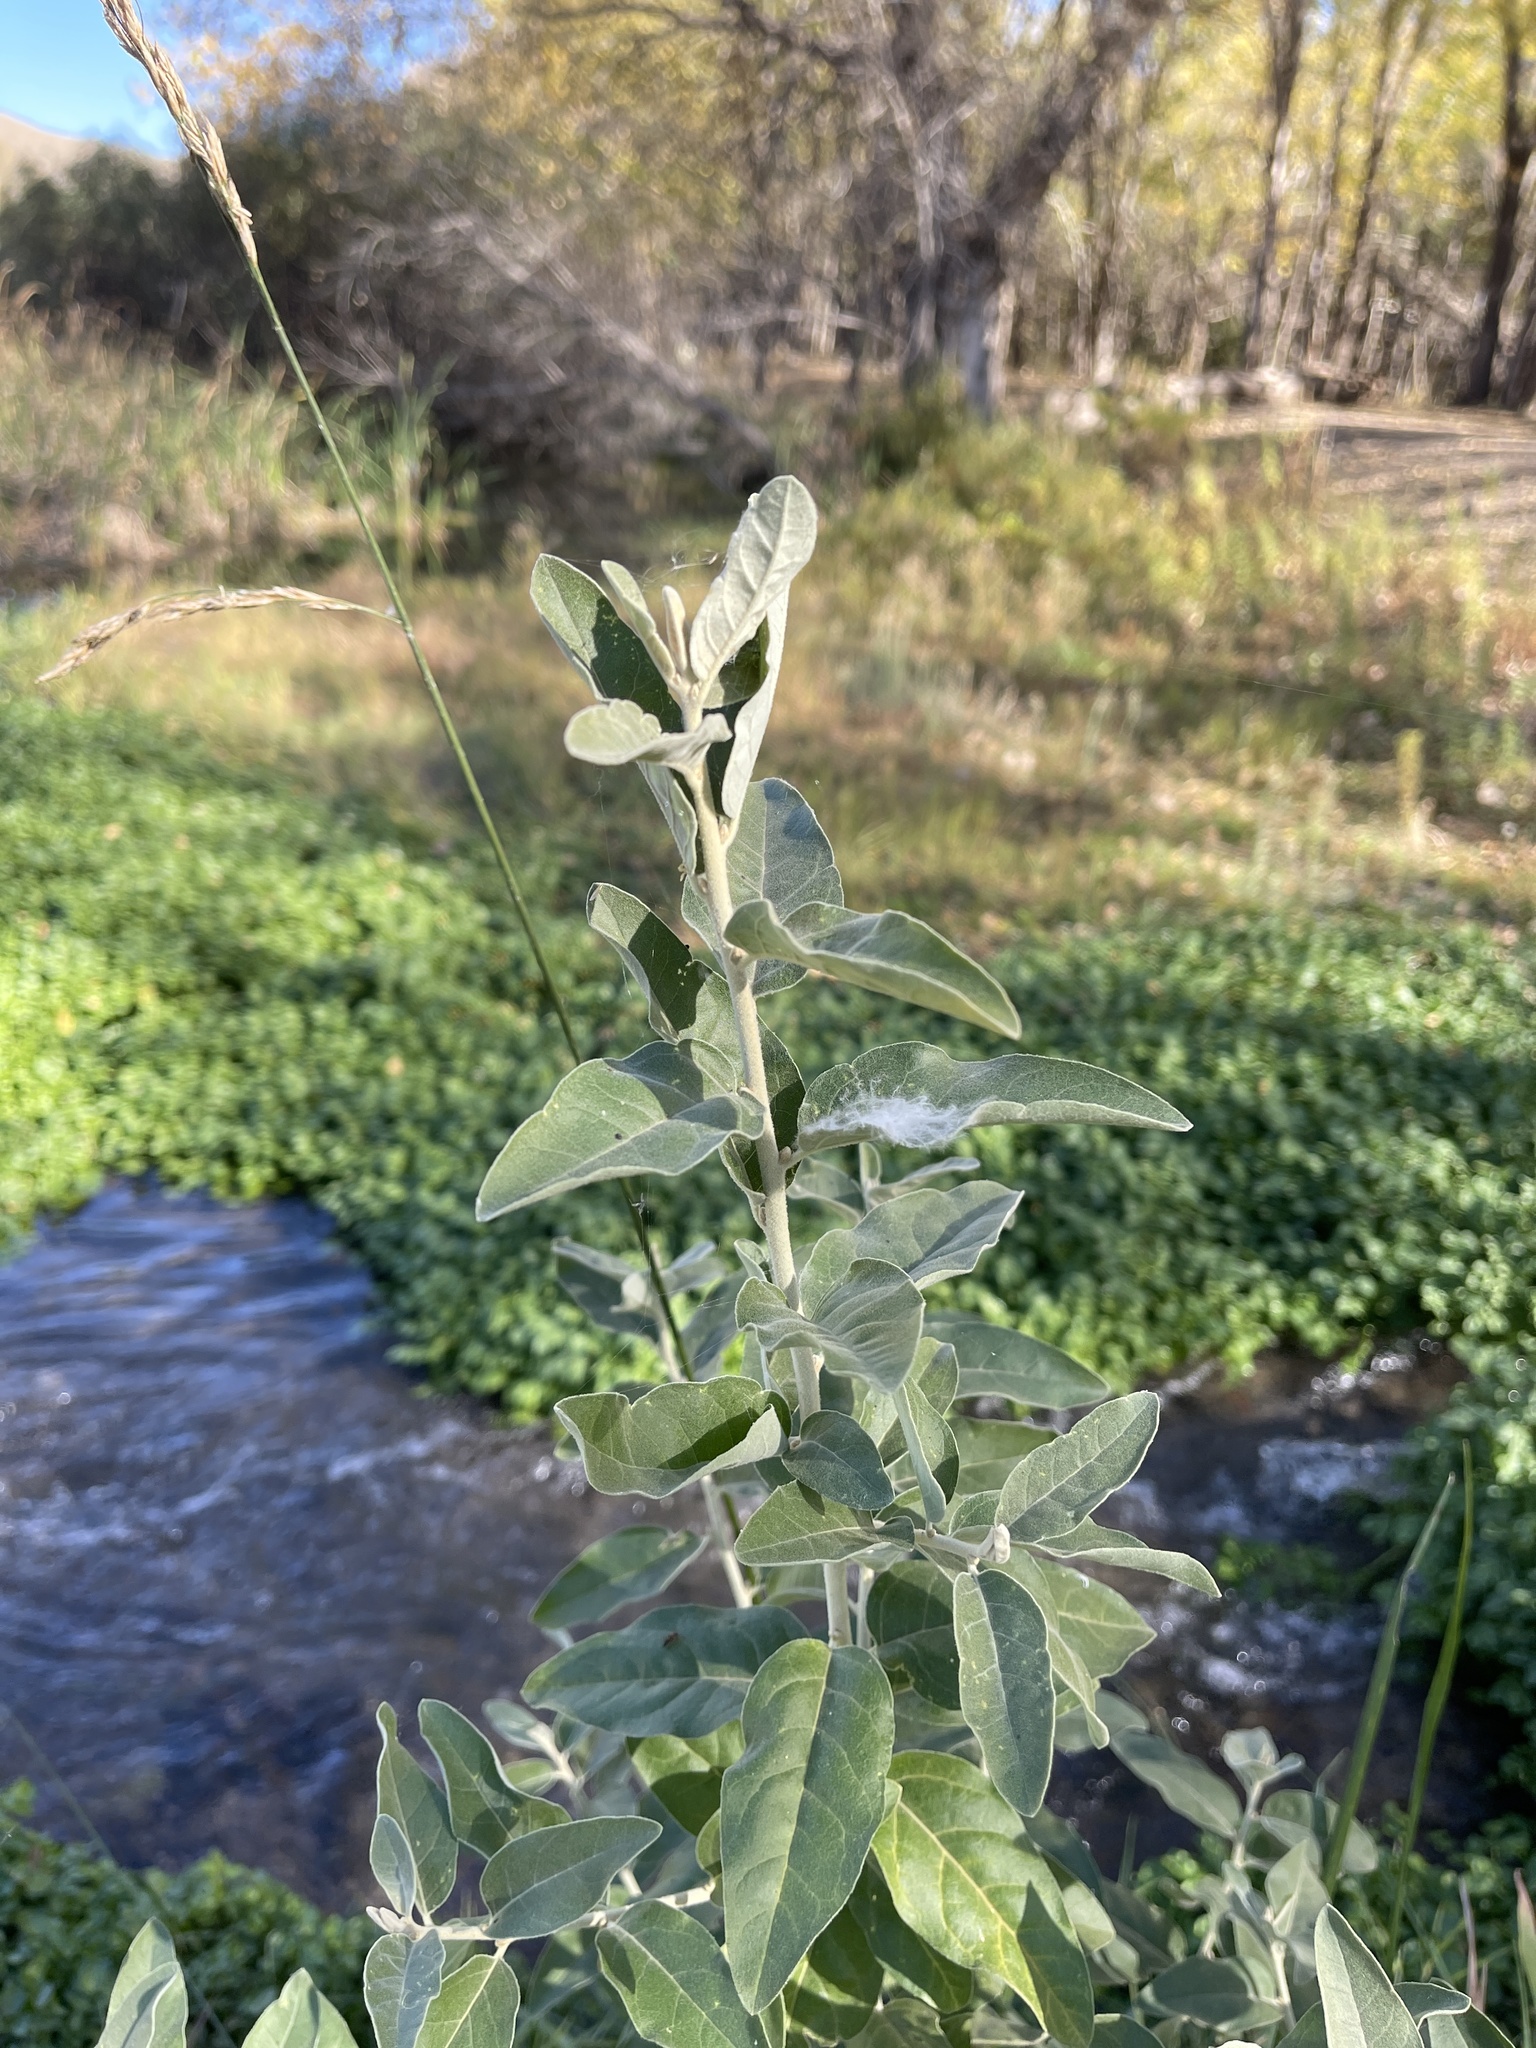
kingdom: Plantae
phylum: Tracheophyta
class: Magnoliopsida
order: Rosales
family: Elaeagnaceae
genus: Elaeagnus
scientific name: Elaeagnus angustifolia
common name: Russian olive
